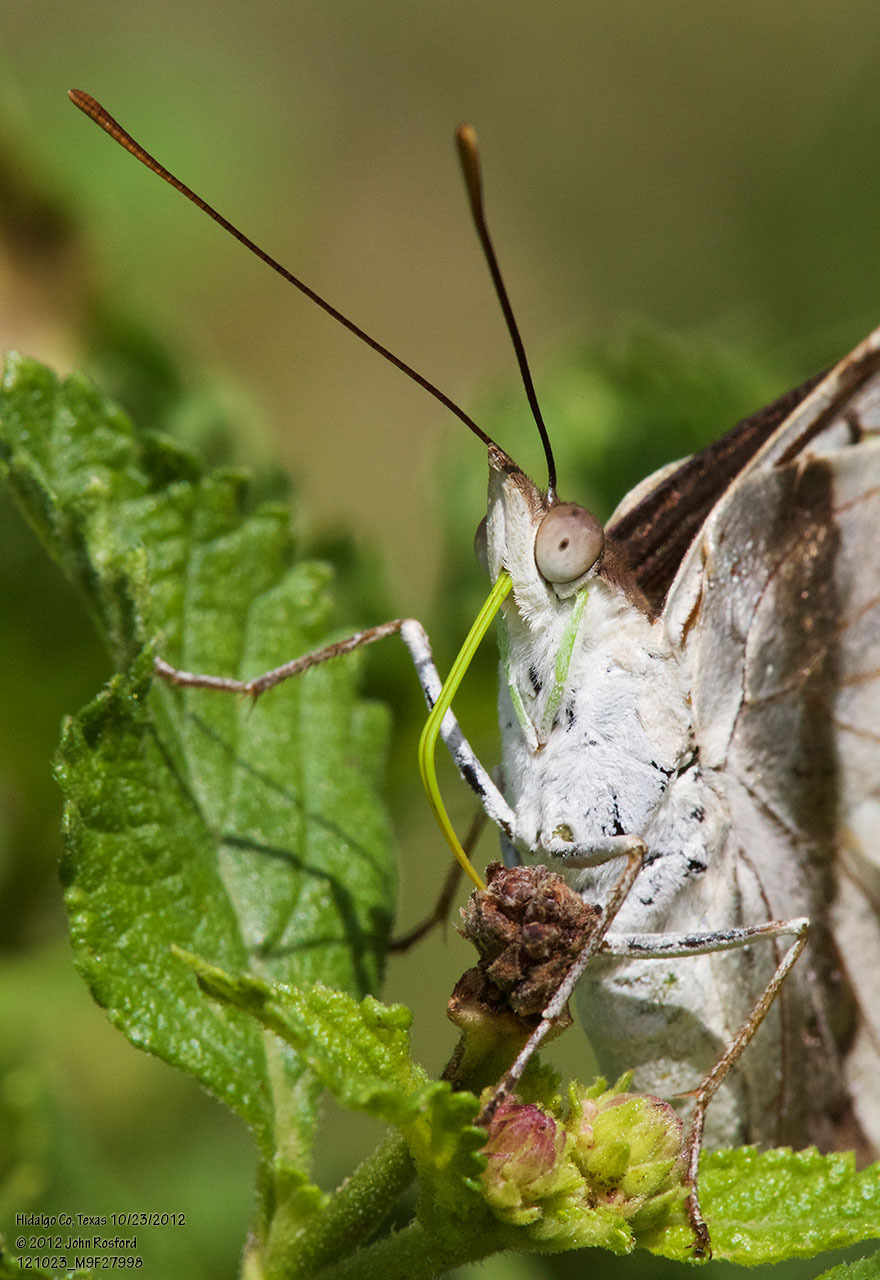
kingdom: Animalia
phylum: Arthropoda
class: Insecta
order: Lepidoptera
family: Nymphalidae
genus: Doxocopa
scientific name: Doxocopa laure
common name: Silver emperor
